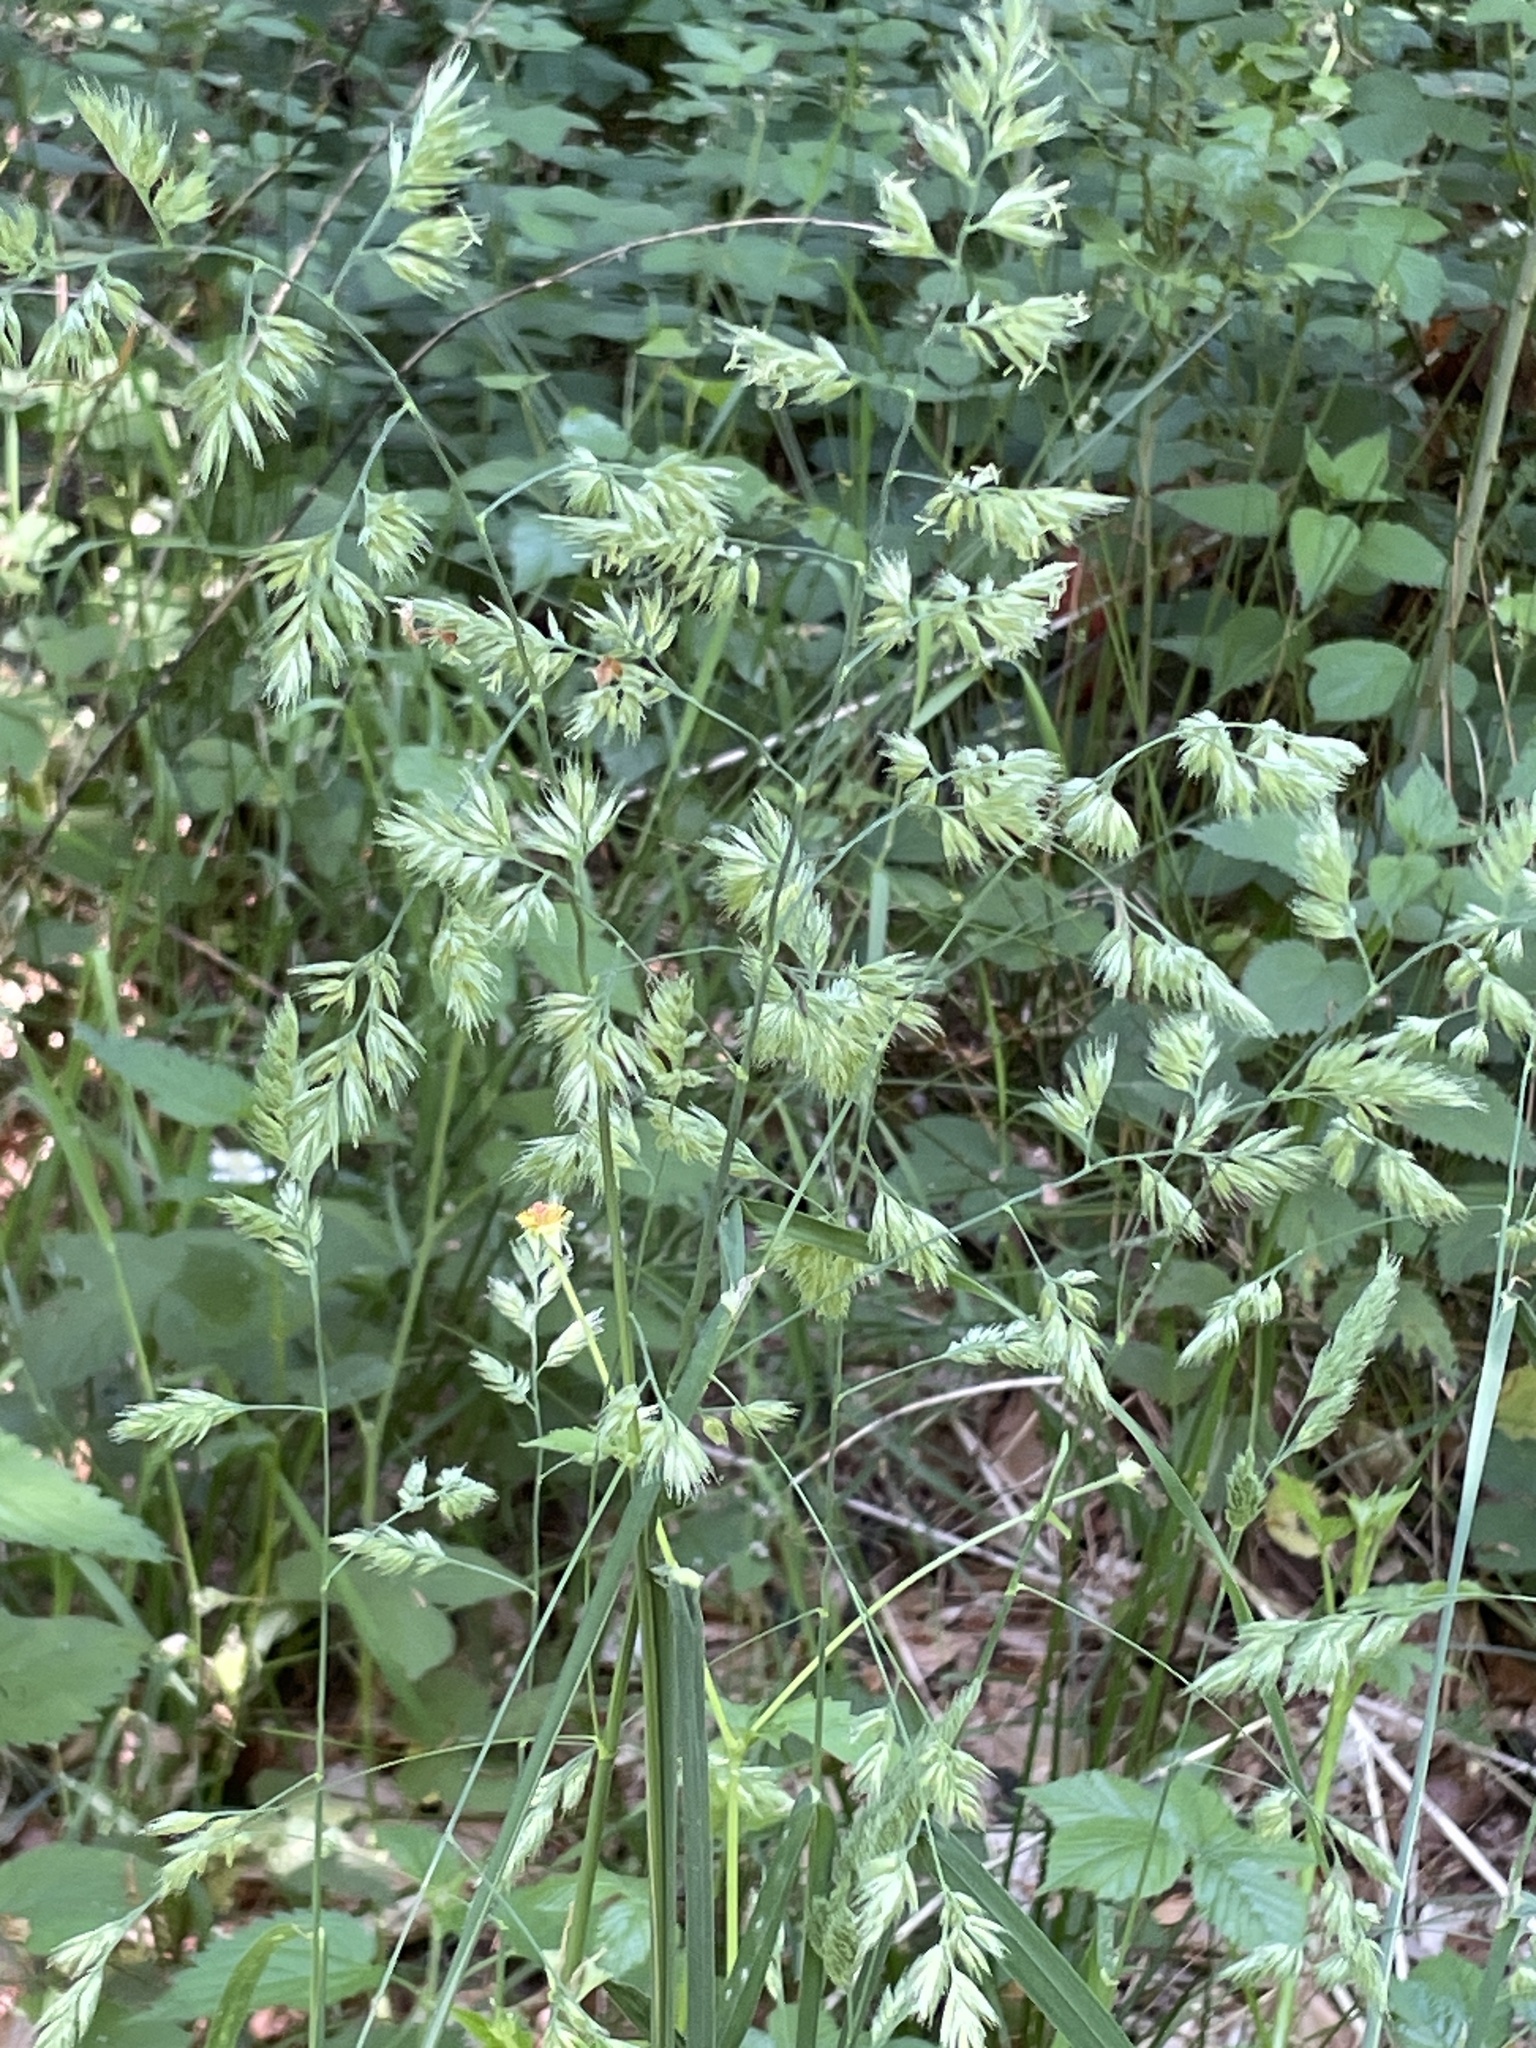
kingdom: Plantae
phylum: Tracheophyta
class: Liliopsida
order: Poales
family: Poaceae
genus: Dactylis
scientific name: Dactylis glomerata
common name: Orchardgrass
